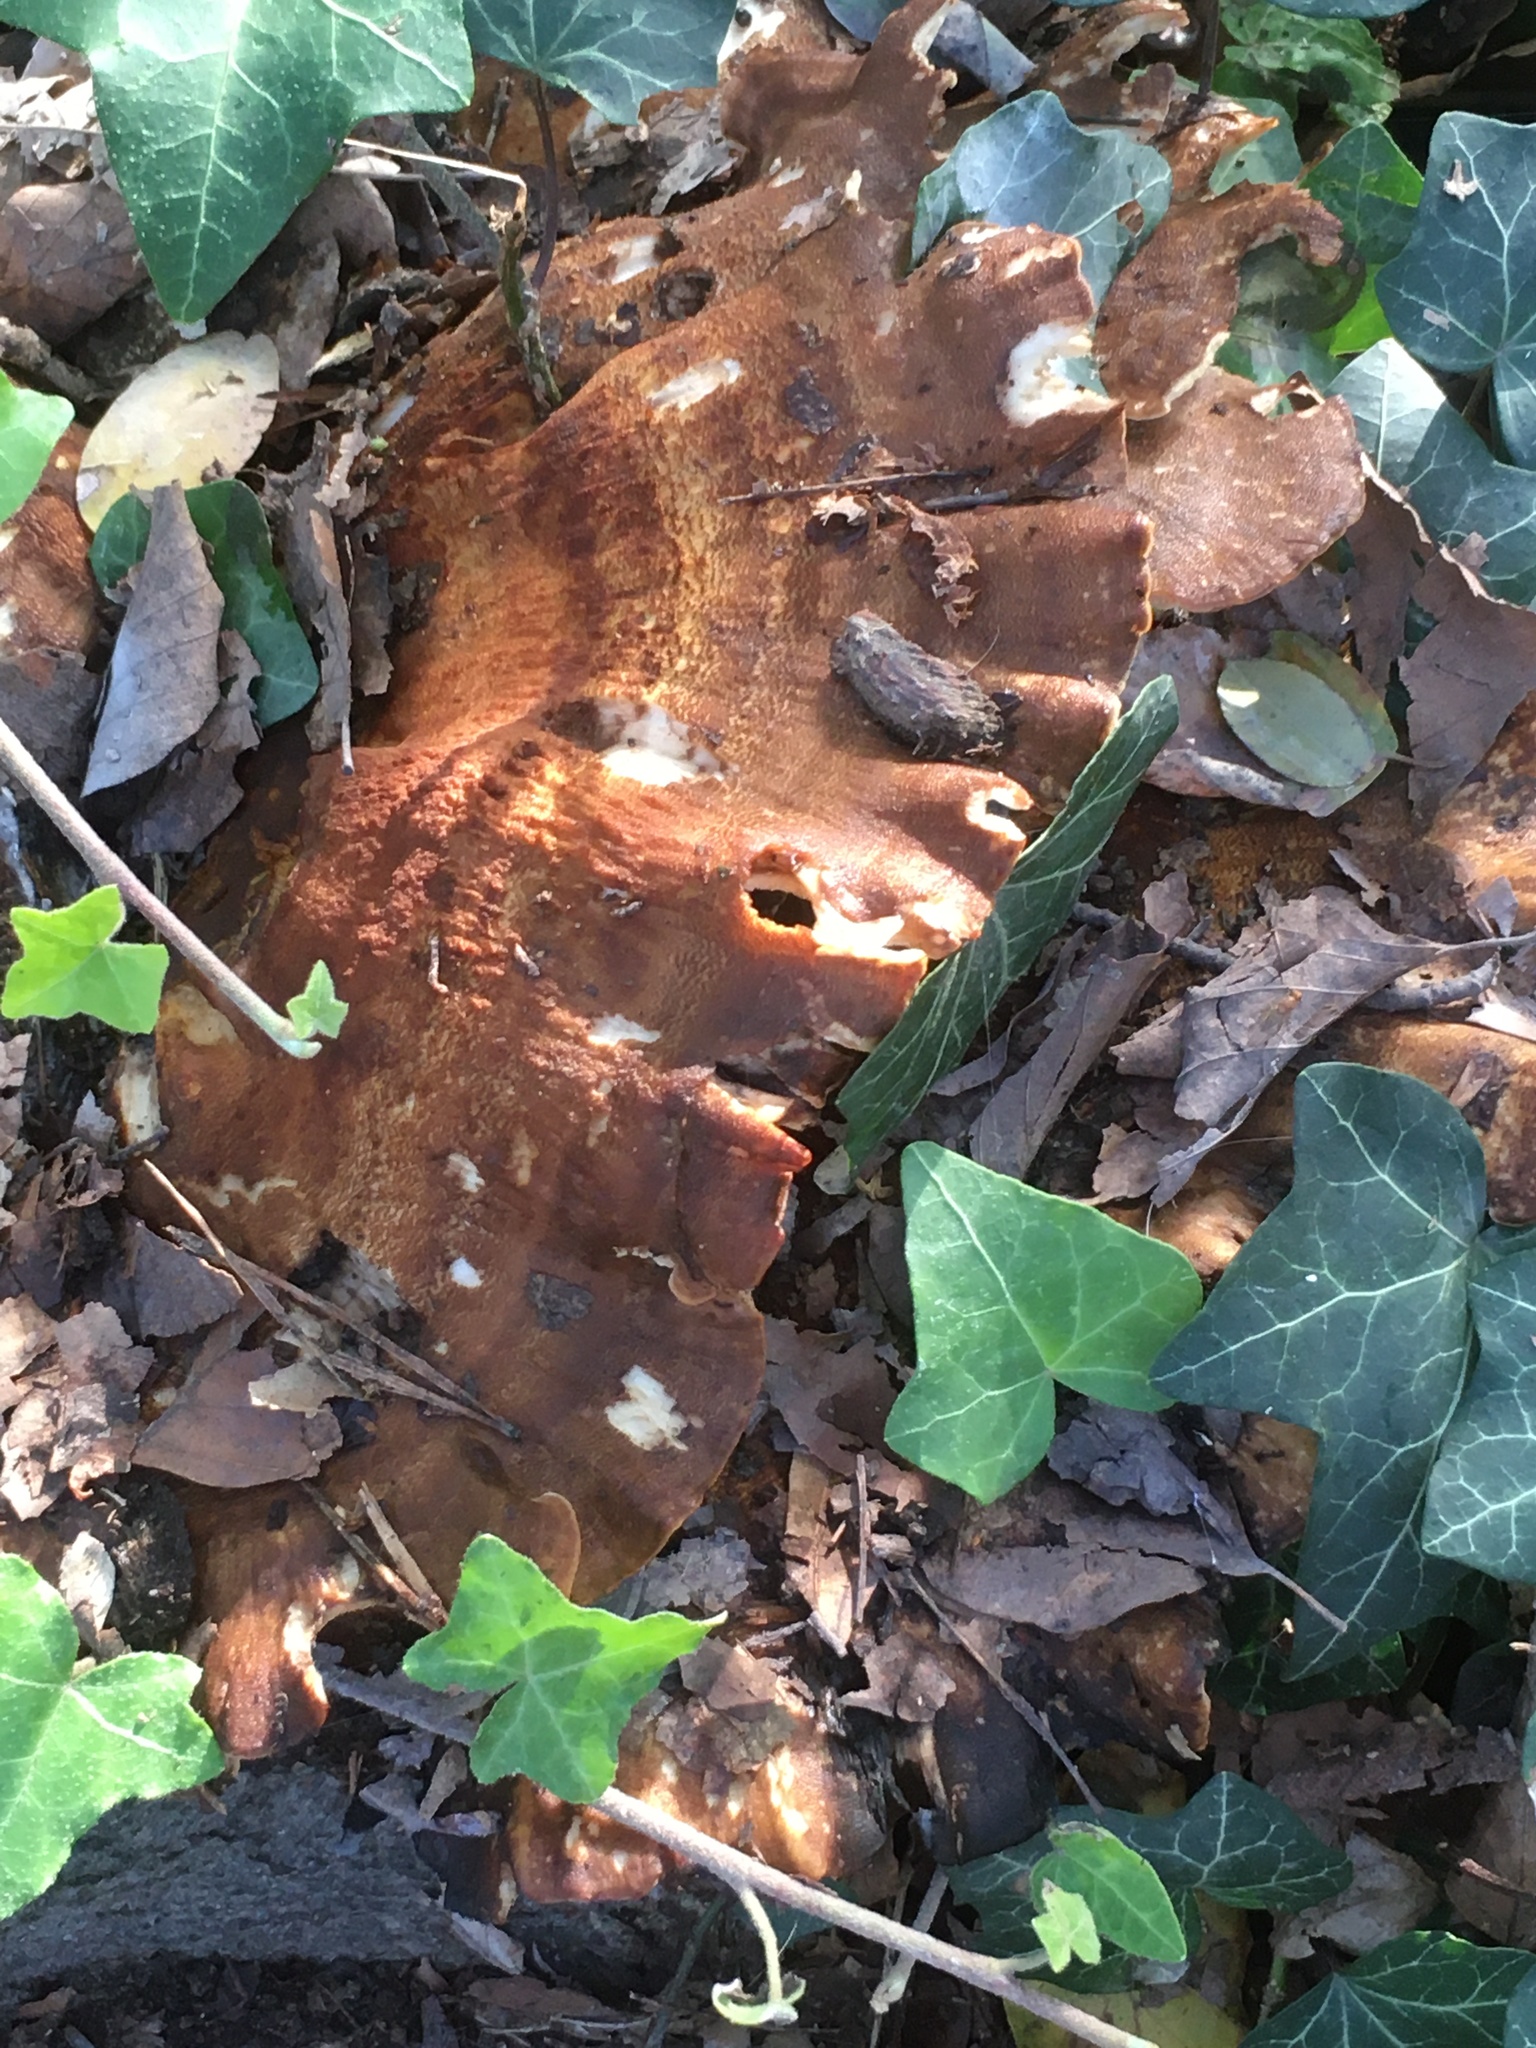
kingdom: Fungi
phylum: Basidiomycota
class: Agaricomycetes
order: Polyporales
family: Meripilaceae
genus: Meripilus
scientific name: Meripilus giganteus
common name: Giant polypore
